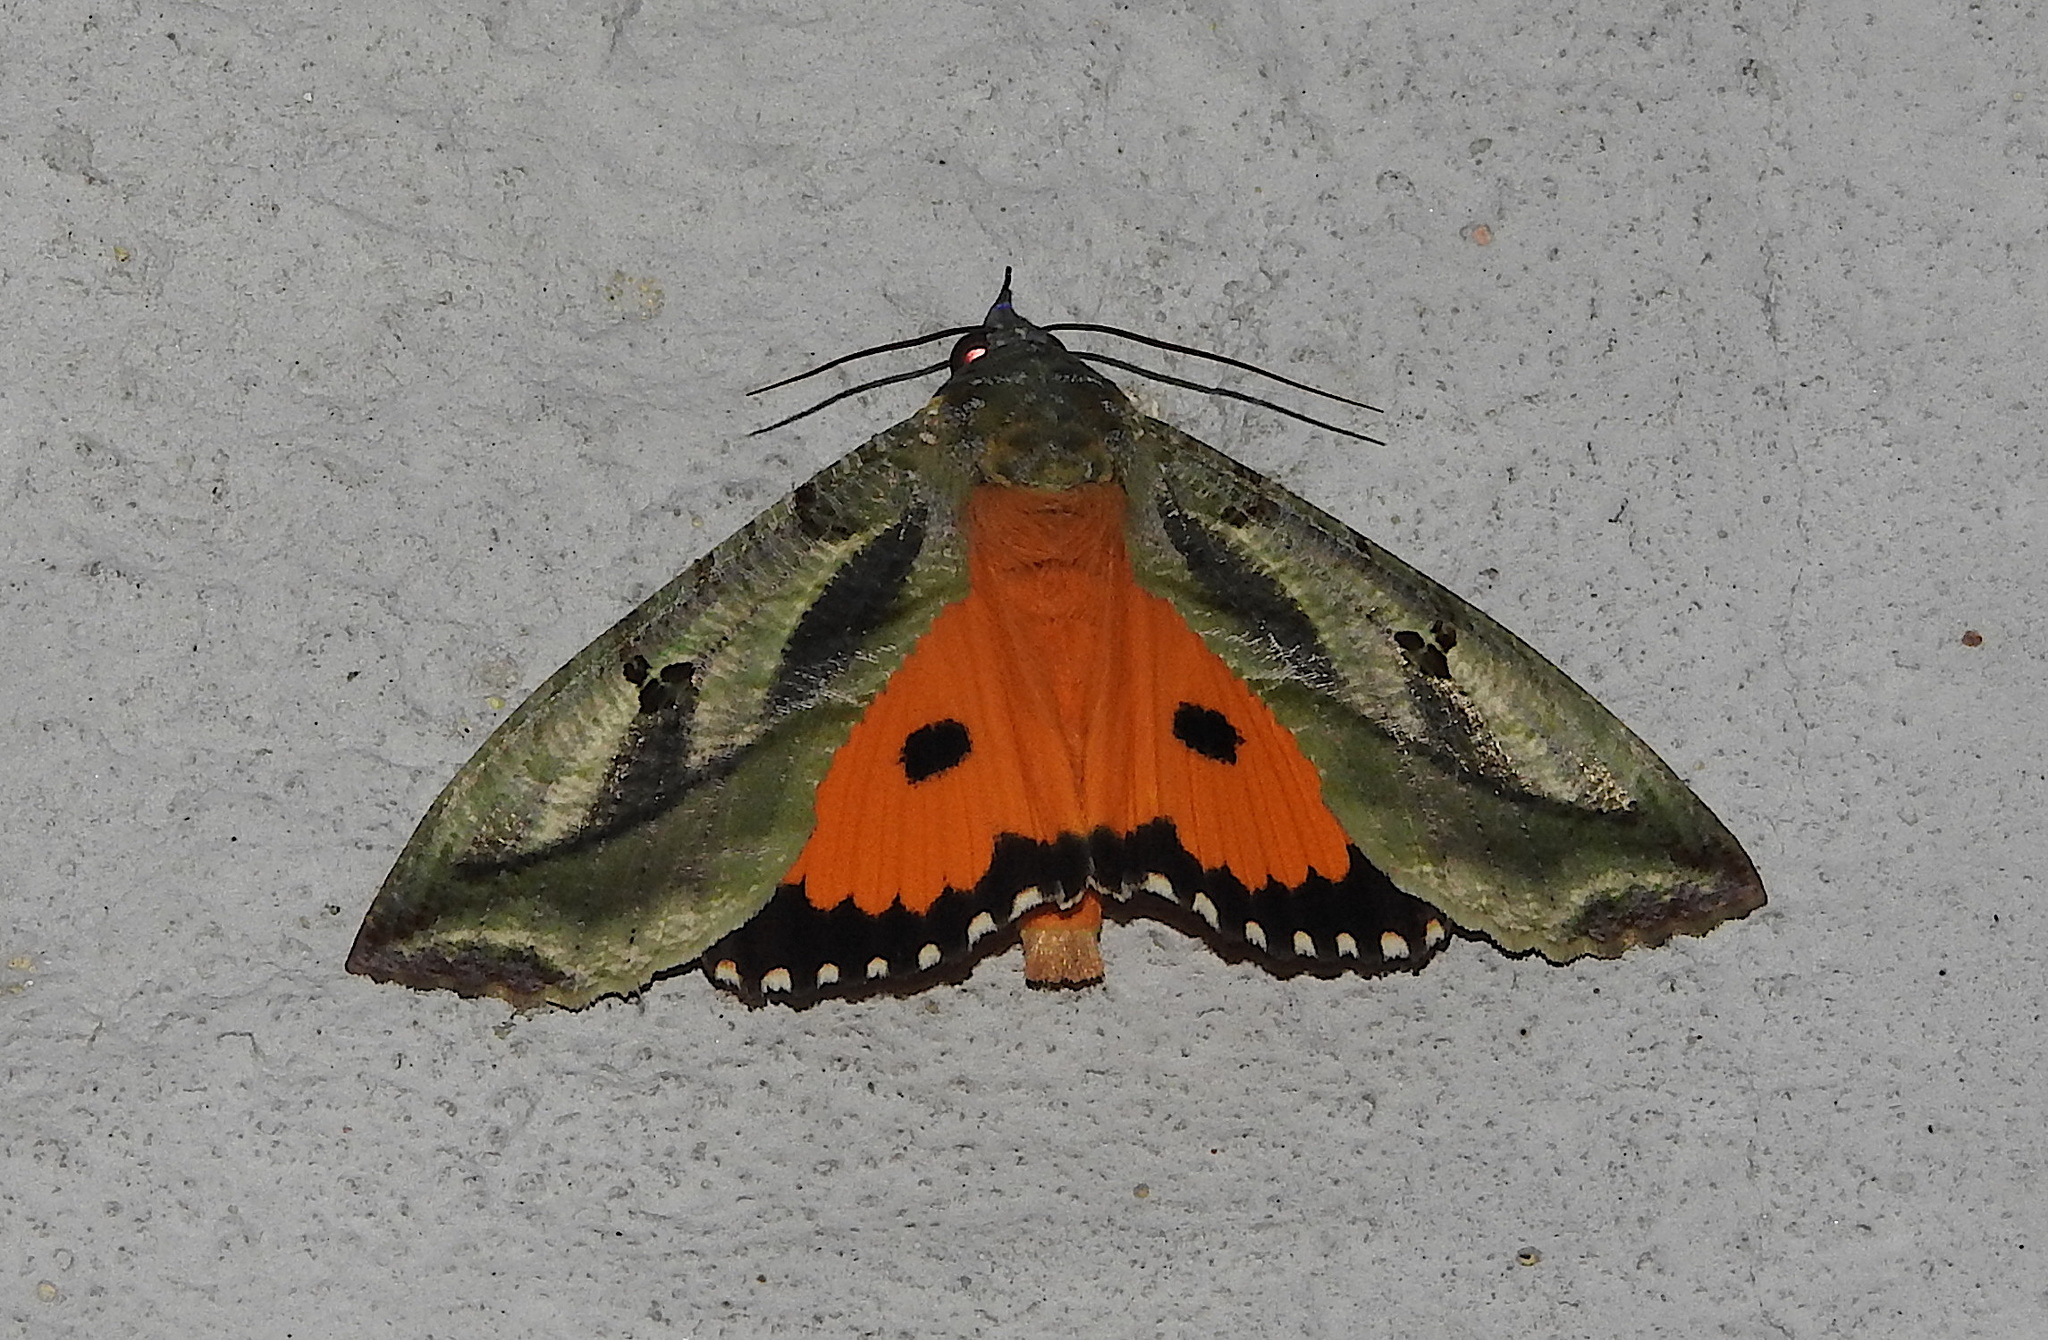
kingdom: Animalia
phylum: Arthropoda
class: Insecta
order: Lepidoptera
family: Erebidae
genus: Eudocima
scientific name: Eudocima materna
